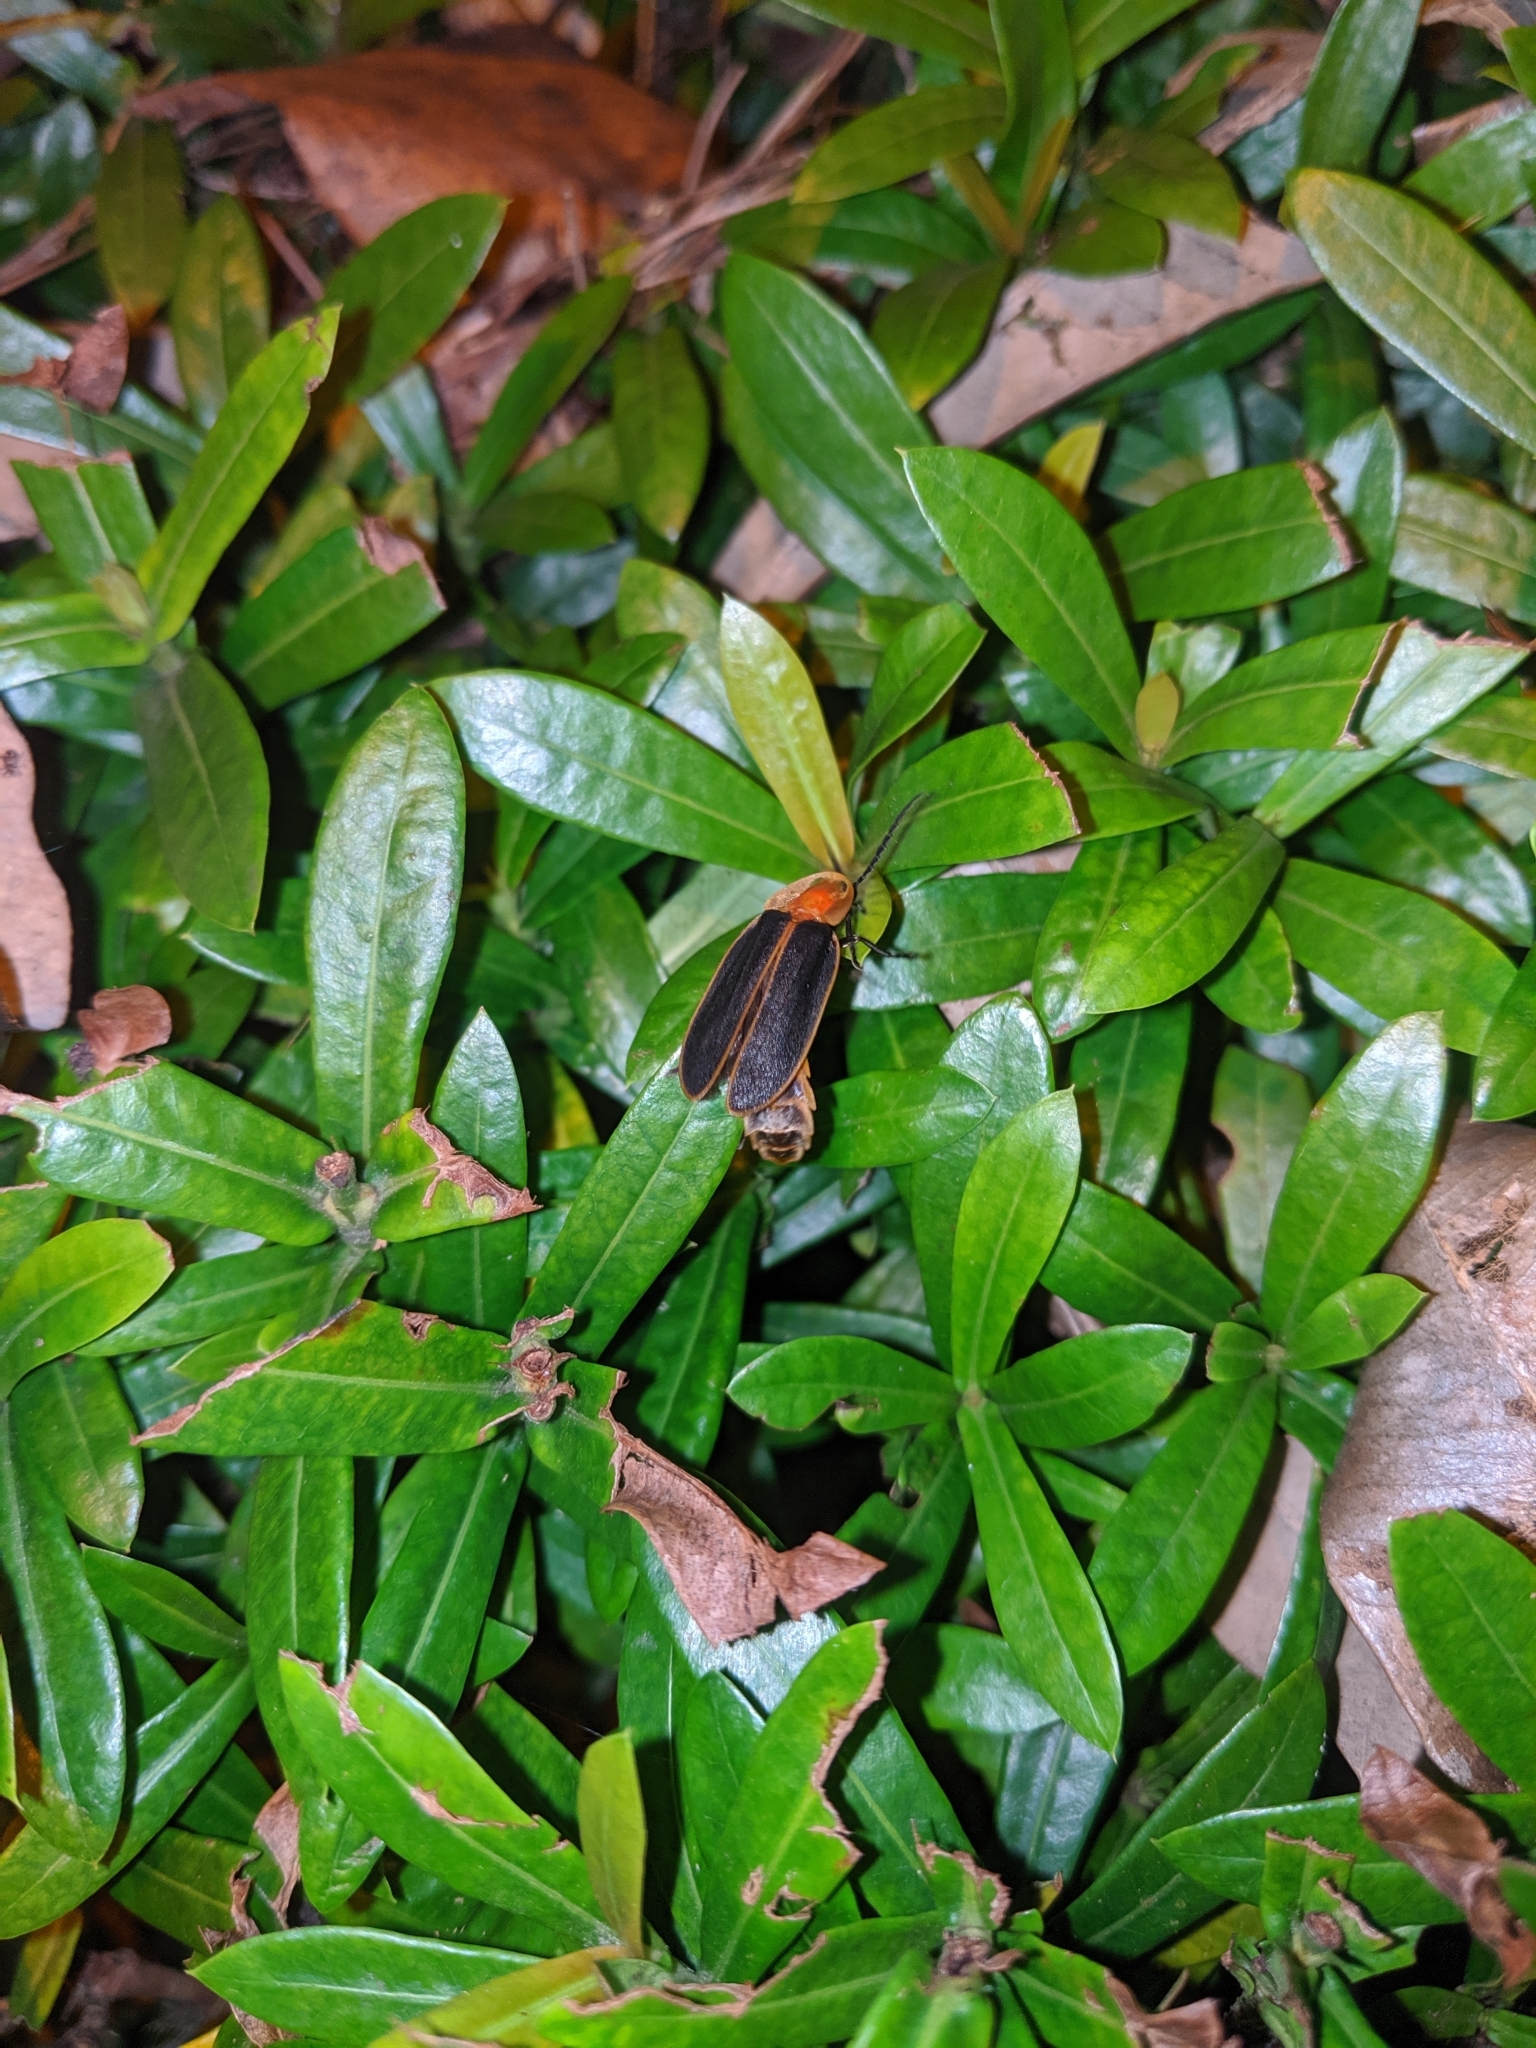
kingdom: Animalia
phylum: Arthropoda
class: Insecta
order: Coleoptera
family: Lampyridae
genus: Pyrocoelia
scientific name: Pyrocoelia praetexta
